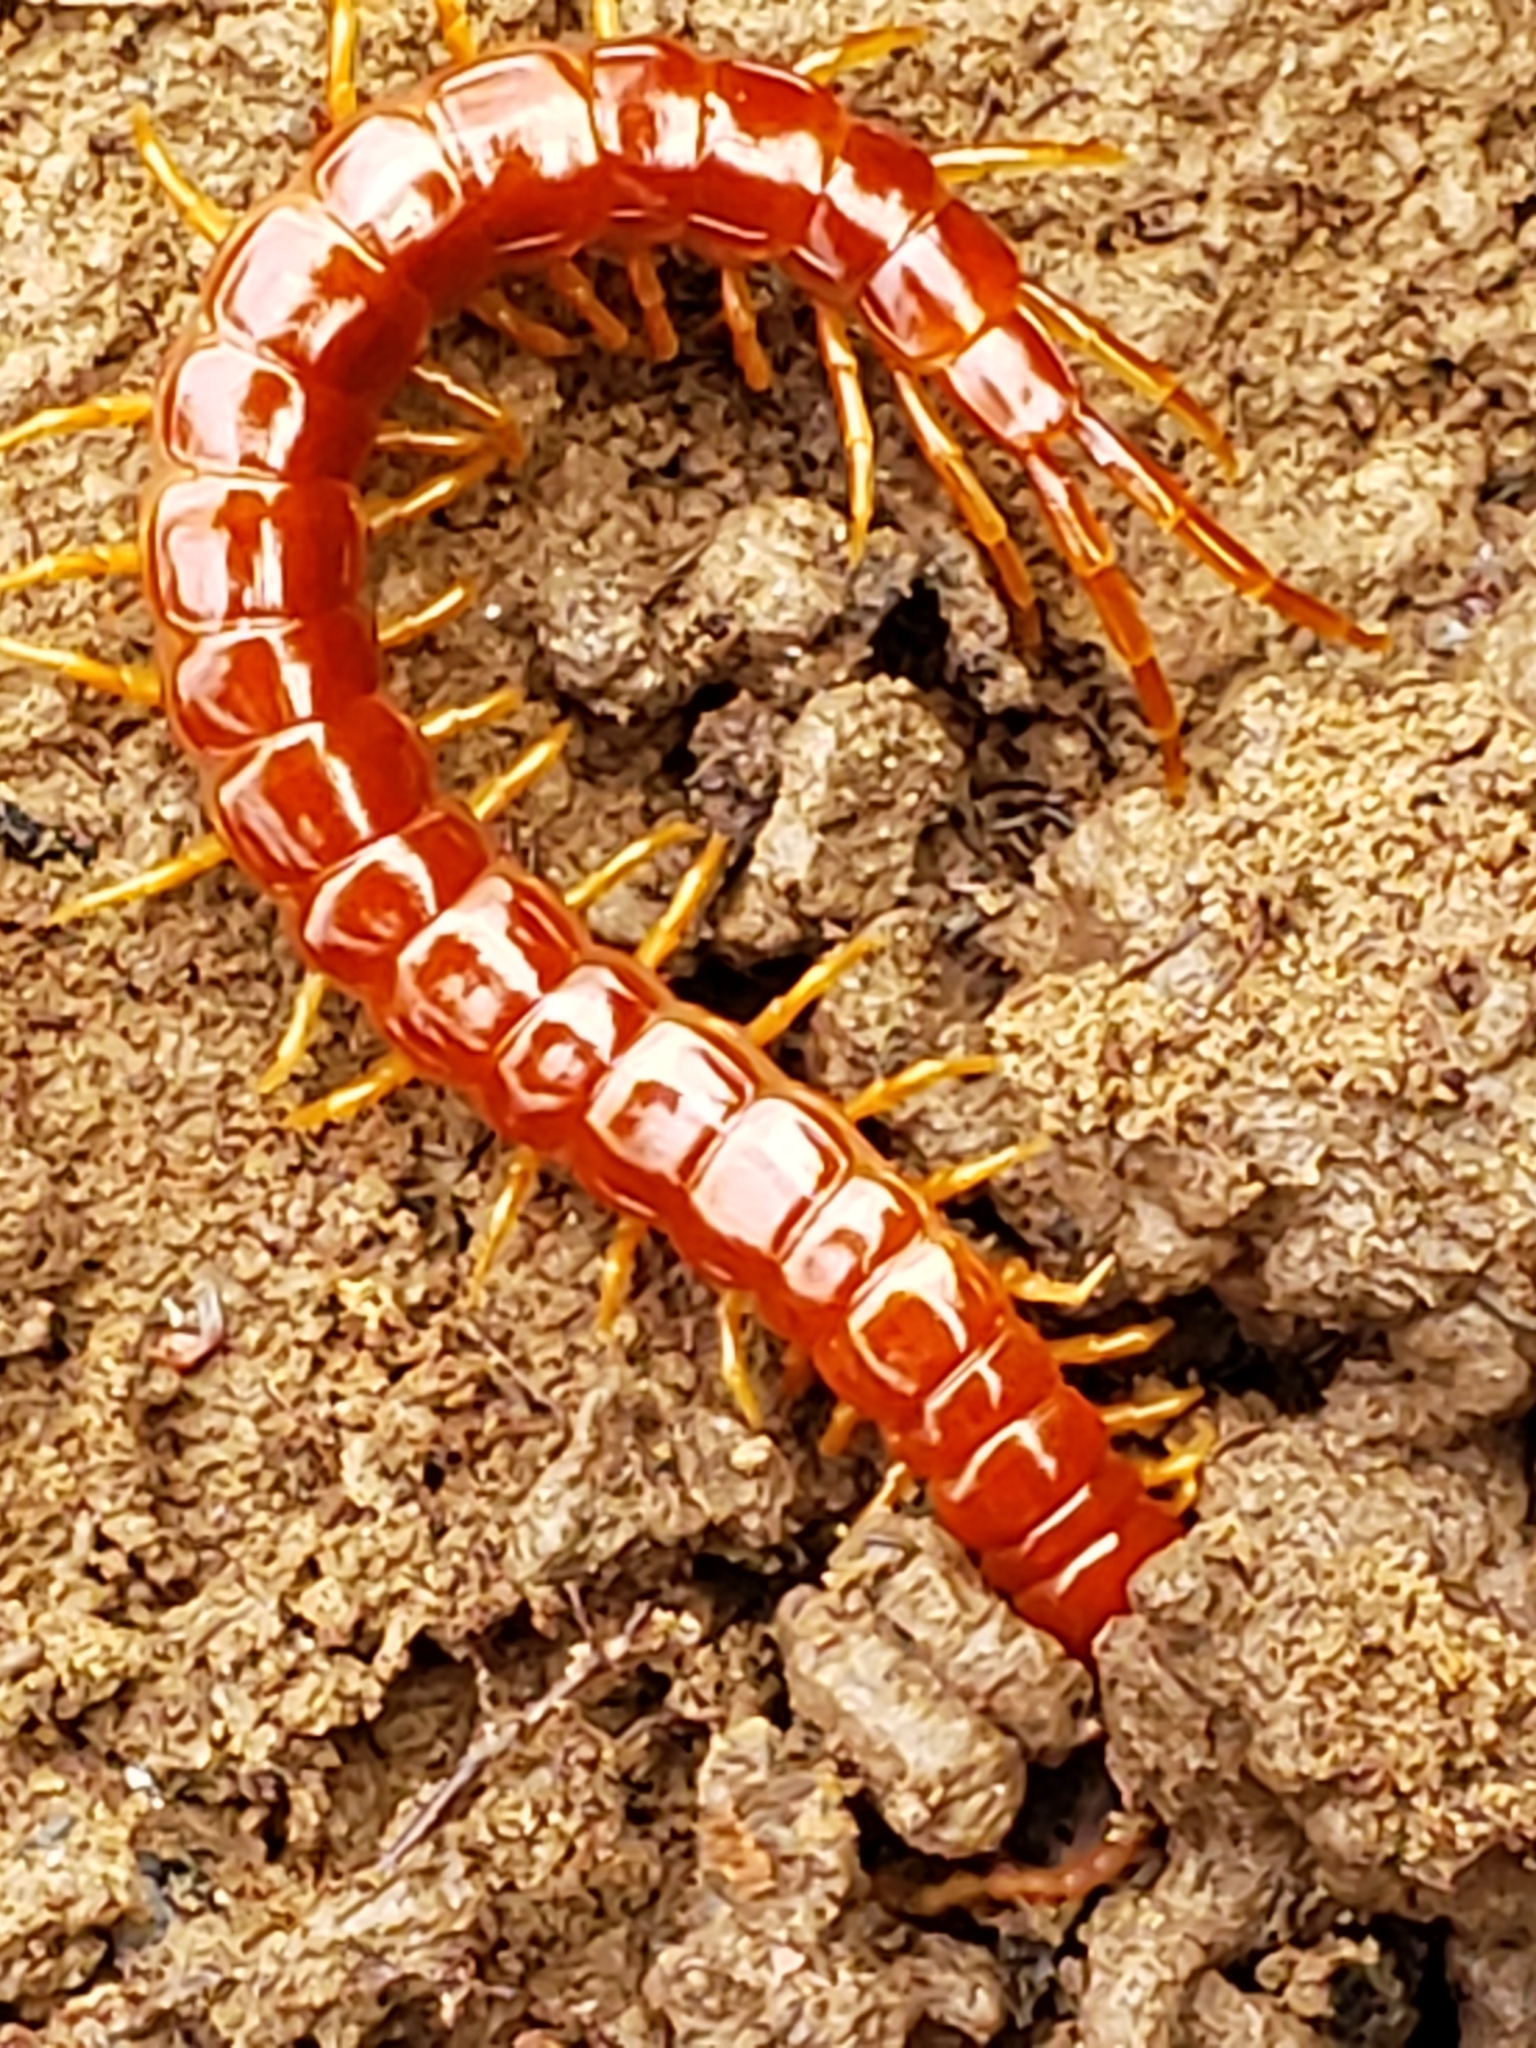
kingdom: Animalia
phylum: Arthropoda
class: Chilopoda
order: Scolopendromorpha
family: Scolopocryptopidae
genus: Scolopocryptops
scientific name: Scolopocryptops sexspinosus
